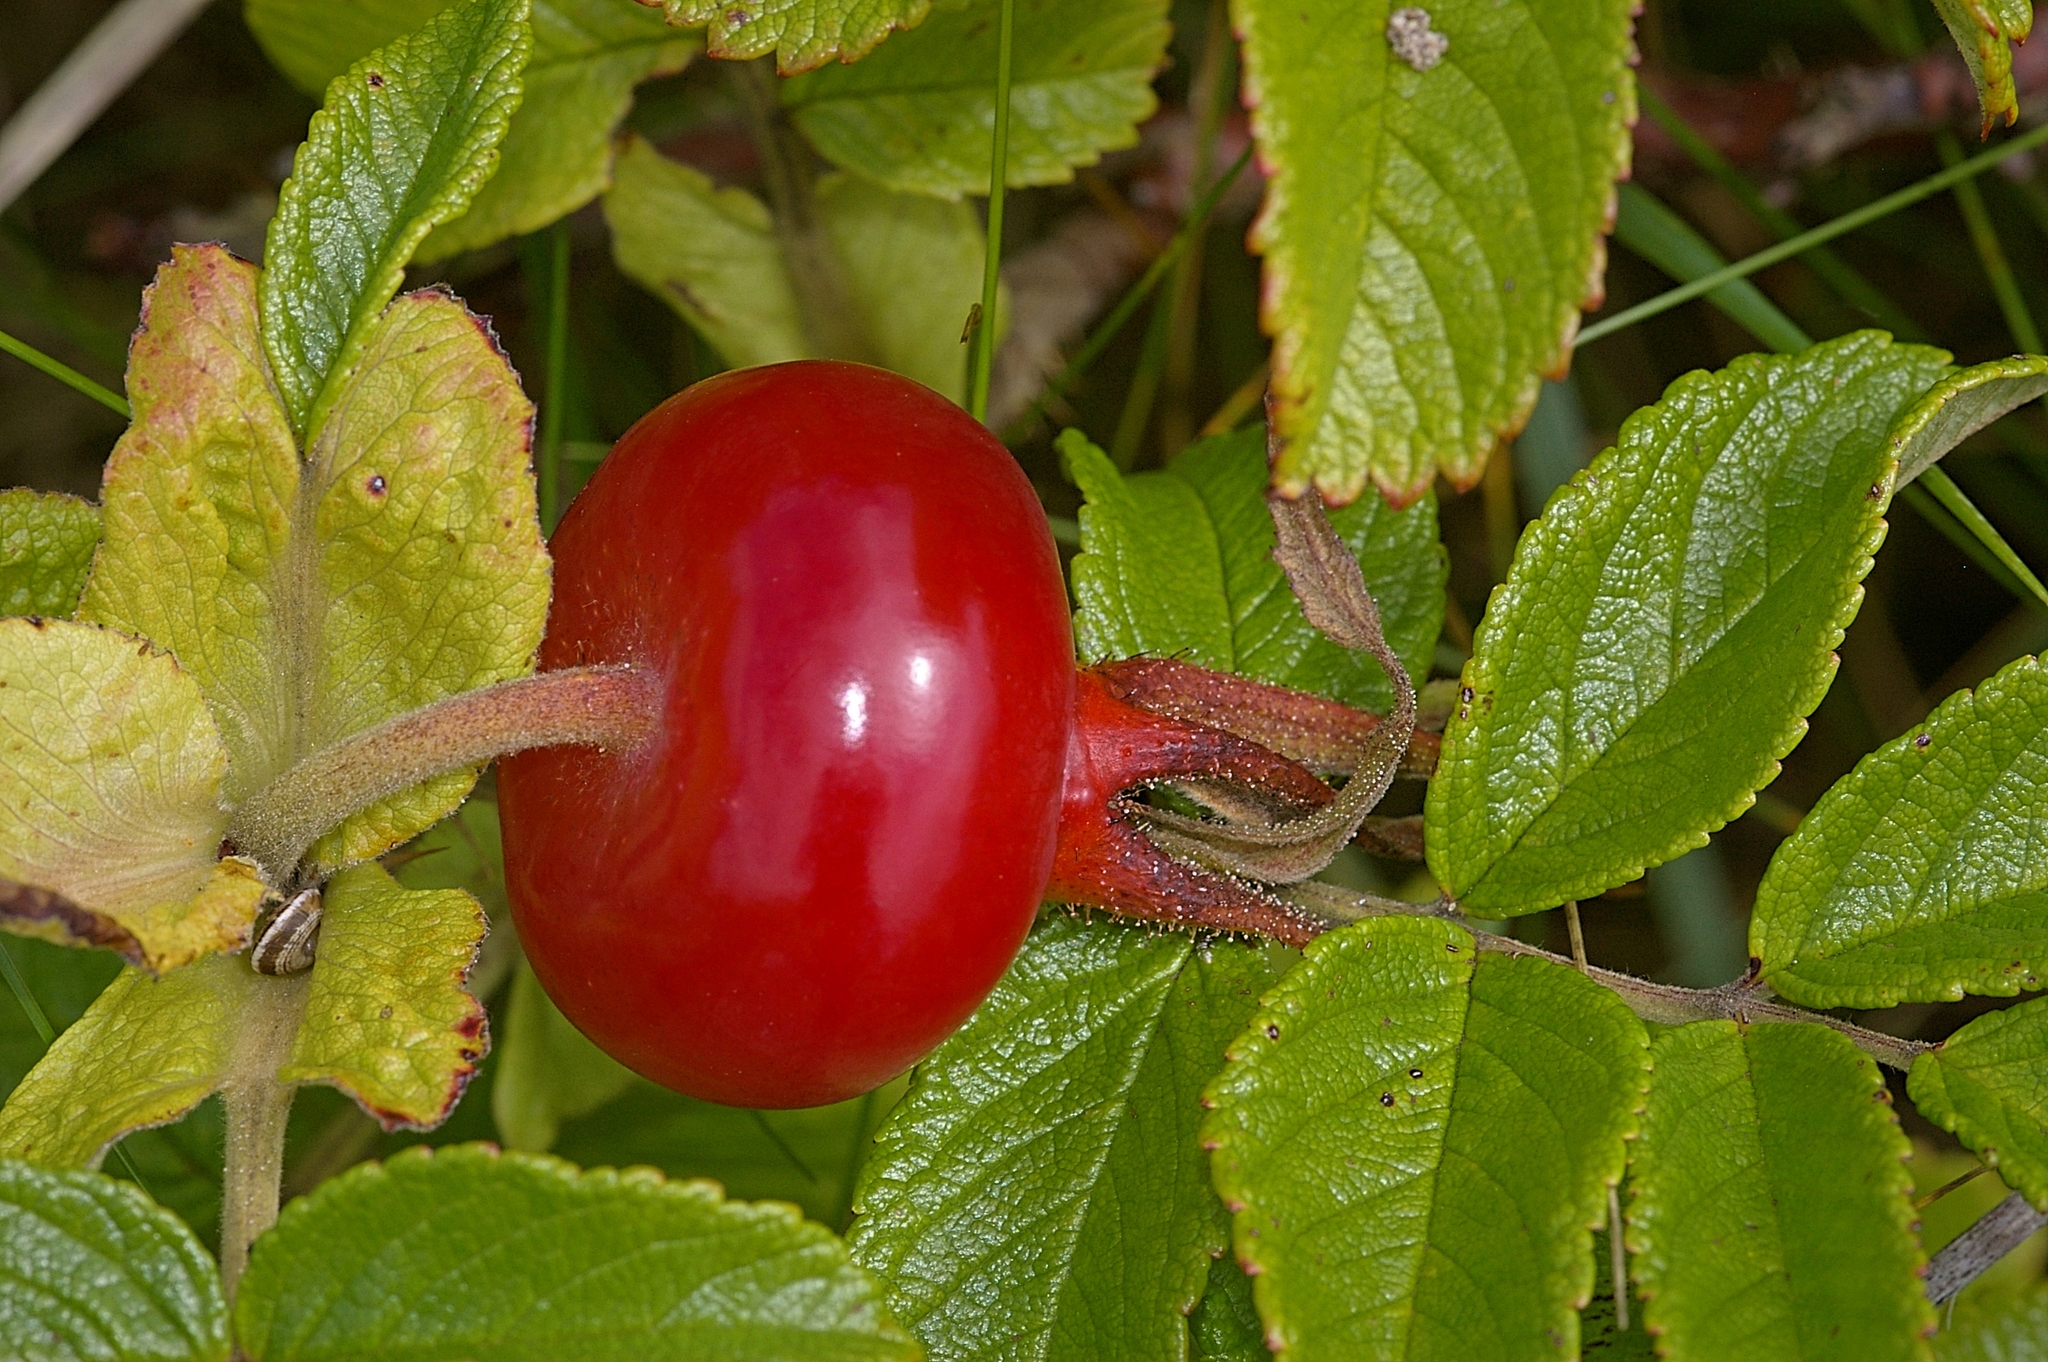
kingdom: Plantae
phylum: Tracheophyta
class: Magnoliopsida
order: Rosales
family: Rosaceae
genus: Rosa
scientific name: Rosa rugosa
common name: Japanese rose
